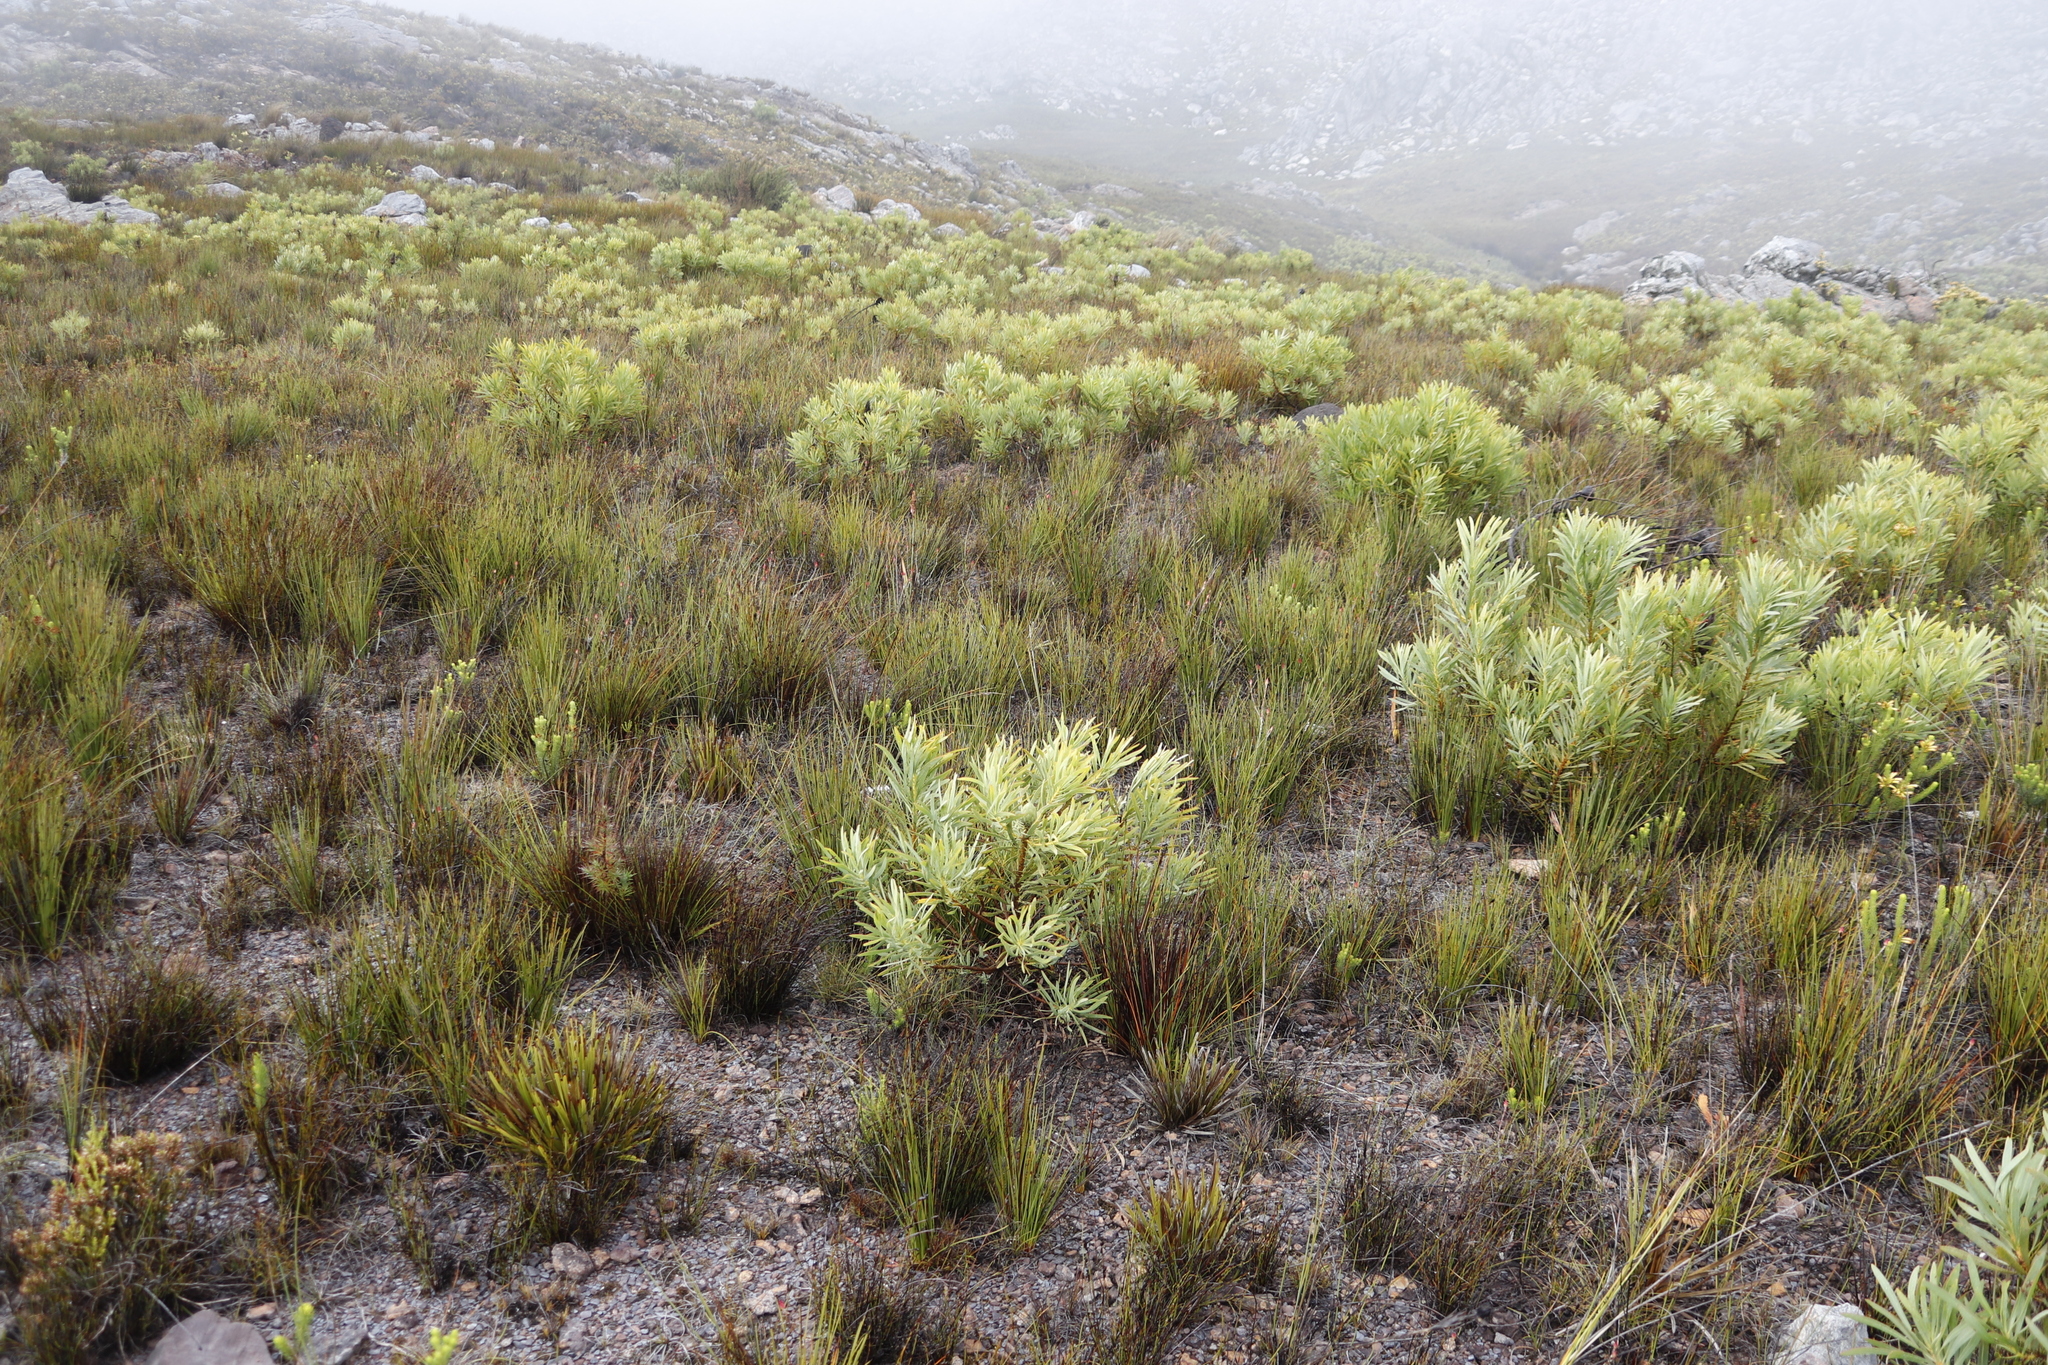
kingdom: Plantae
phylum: Tracheophyta
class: Magnoliopsida
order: Proteales
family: Proteaceae
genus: Protea
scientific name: Protea repens
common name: Sugarbush
